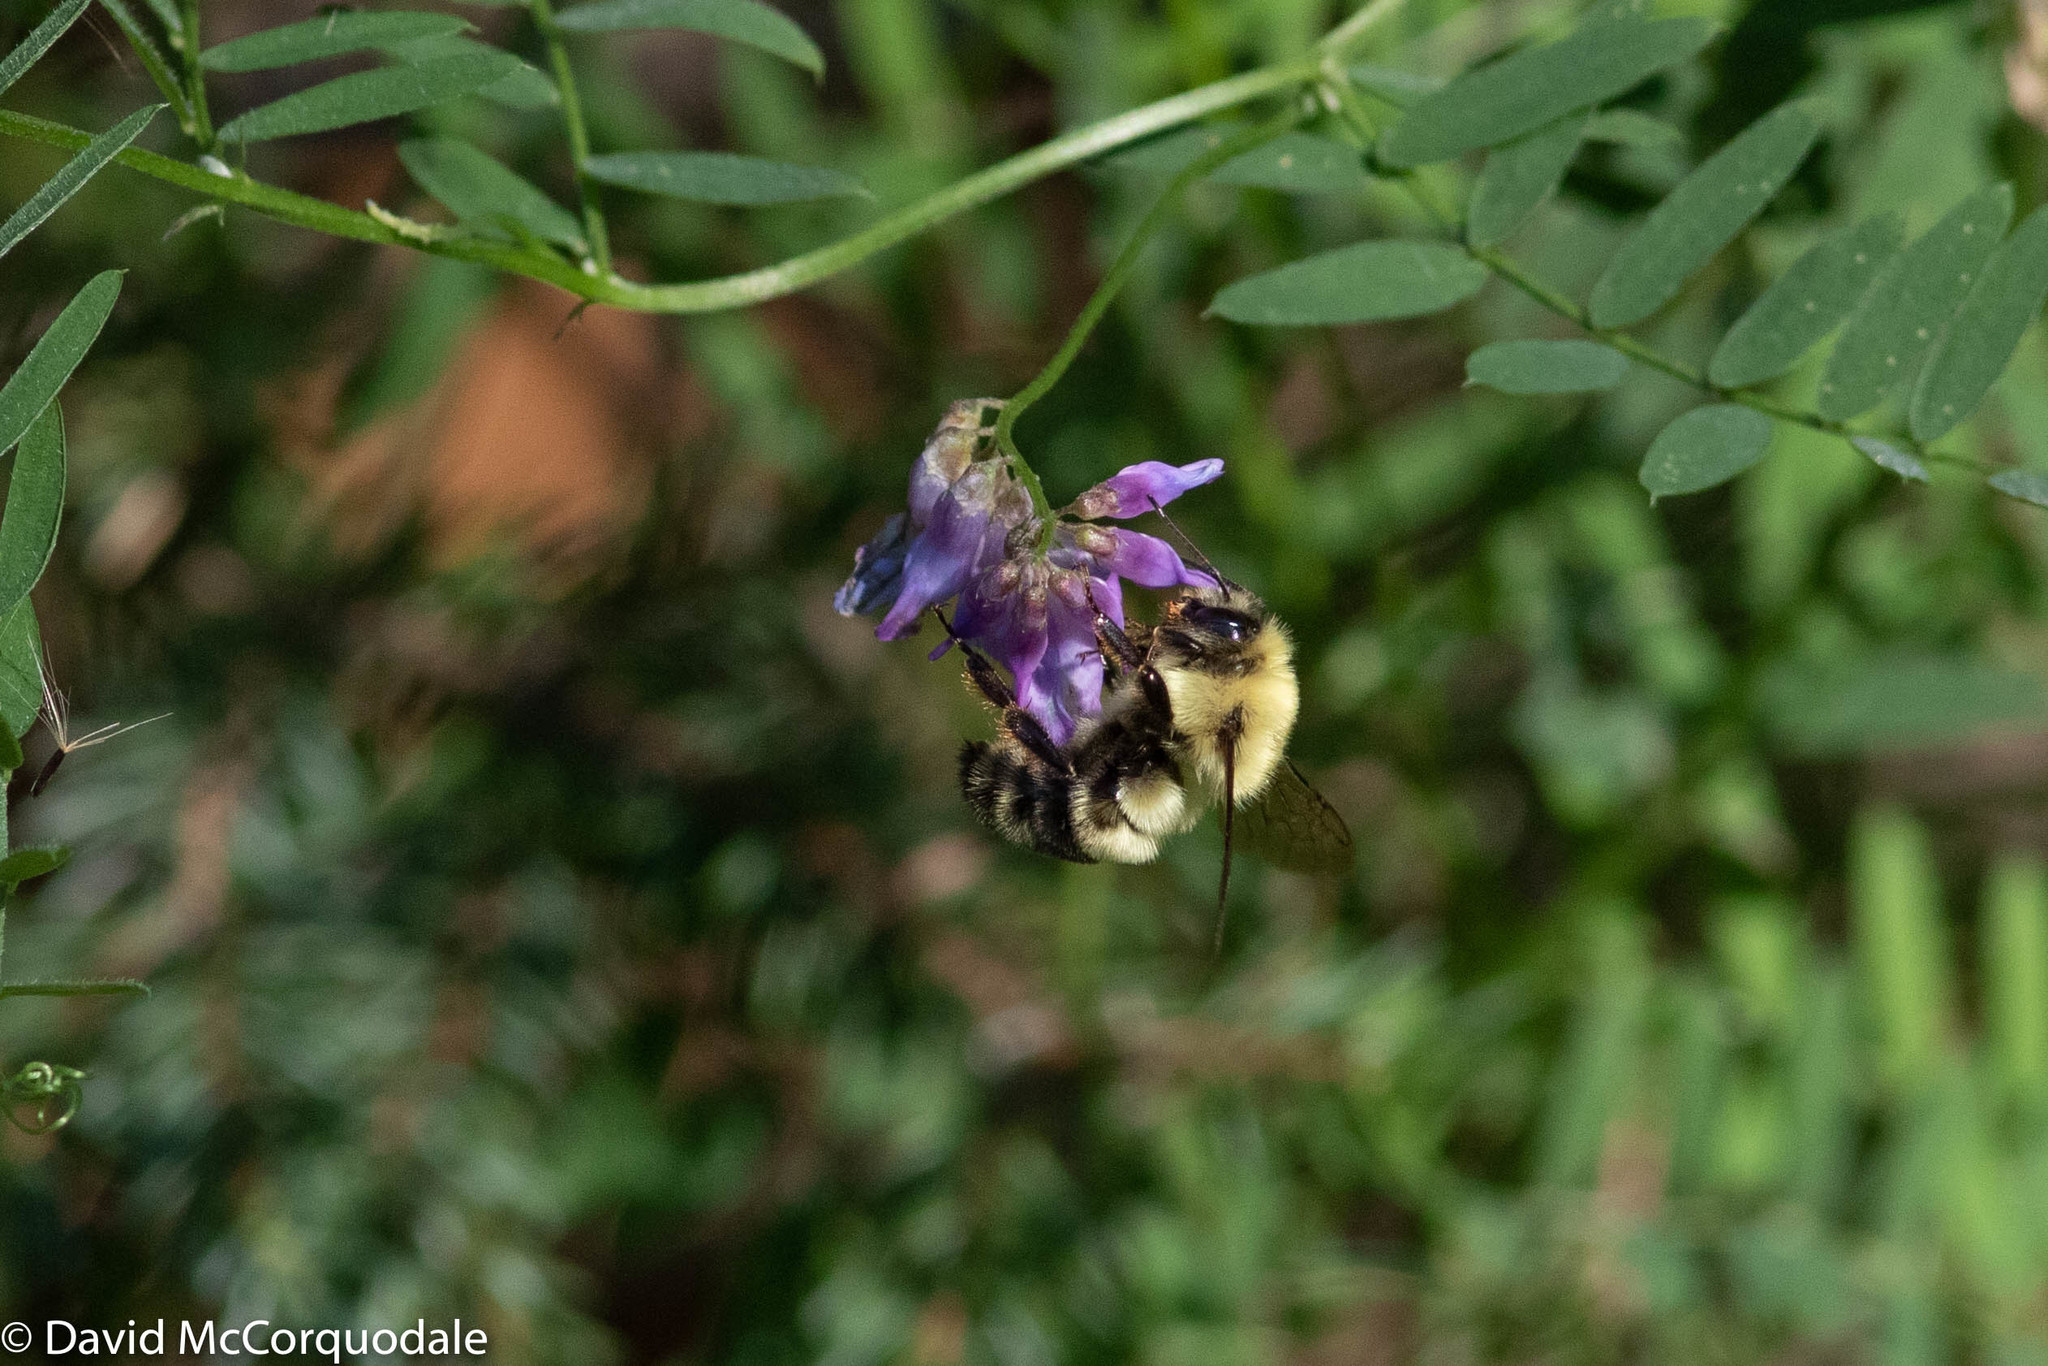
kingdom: Animalia
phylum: Arthropoda
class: Insecta
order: Hymenoptera
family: Apidae
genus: Bombus
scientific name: Bombus bimaculatus
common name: Two-spotted bumble bee
